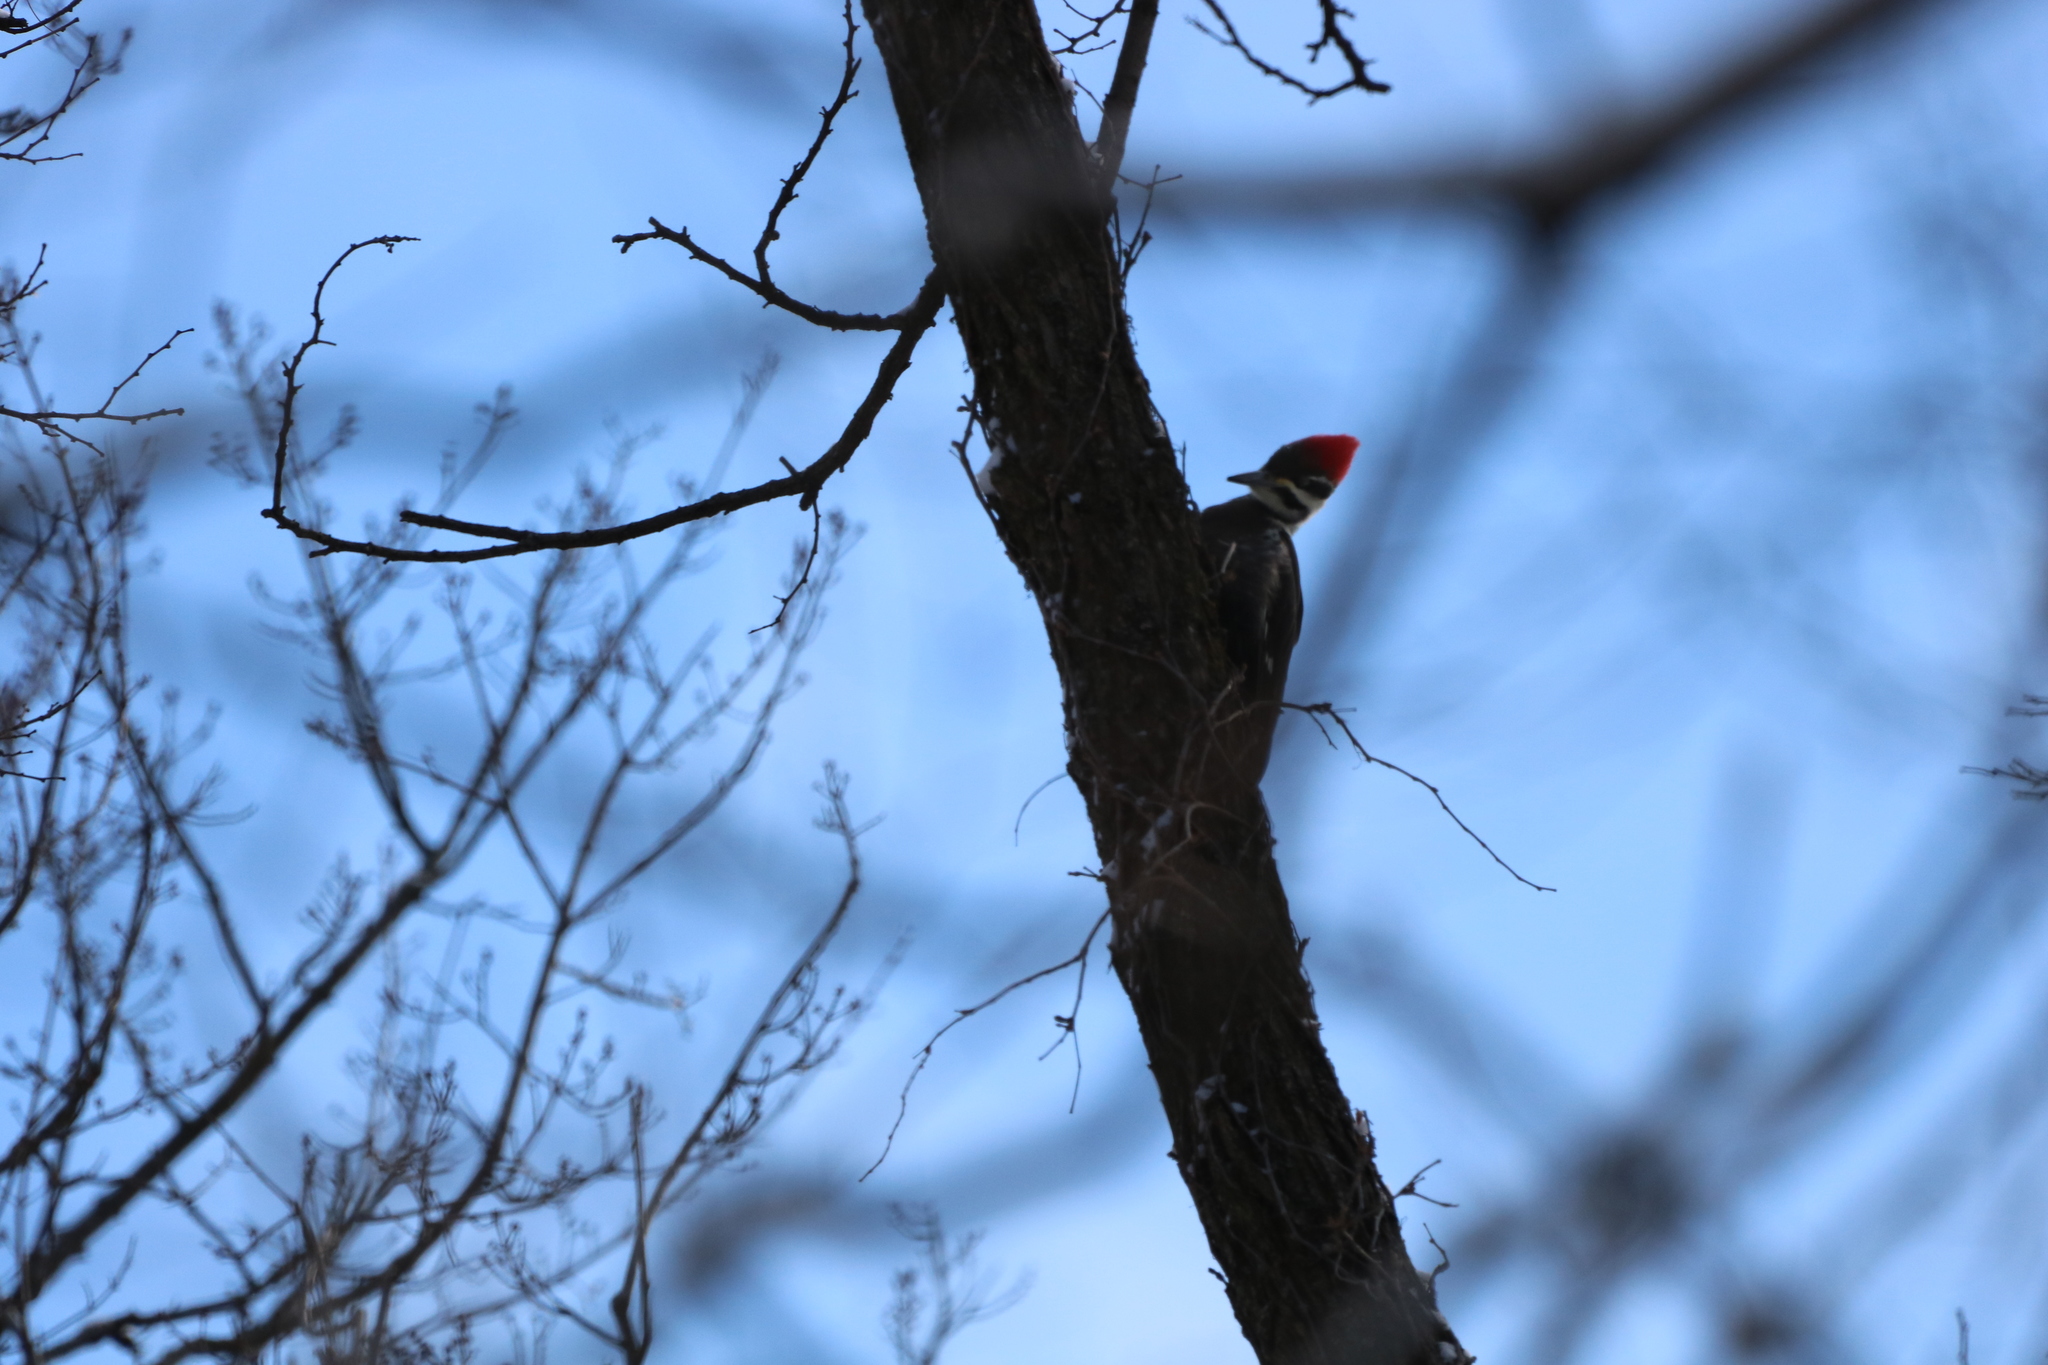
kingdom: Animalia
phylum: Chordata
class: Aves
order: Piciformes
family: Picidae
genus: Dryocopus
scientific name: Dryocopus pileatus
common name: Pileated woodpecker
